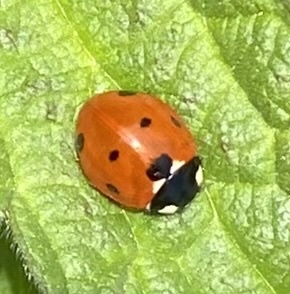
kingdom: Animalia
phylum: Arthropoda
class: Insecta
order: Coleoptera
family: Coccinellidae
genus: Coccinella
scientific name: Coccinella septempunctata
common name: Sevenspotted lady beetle
